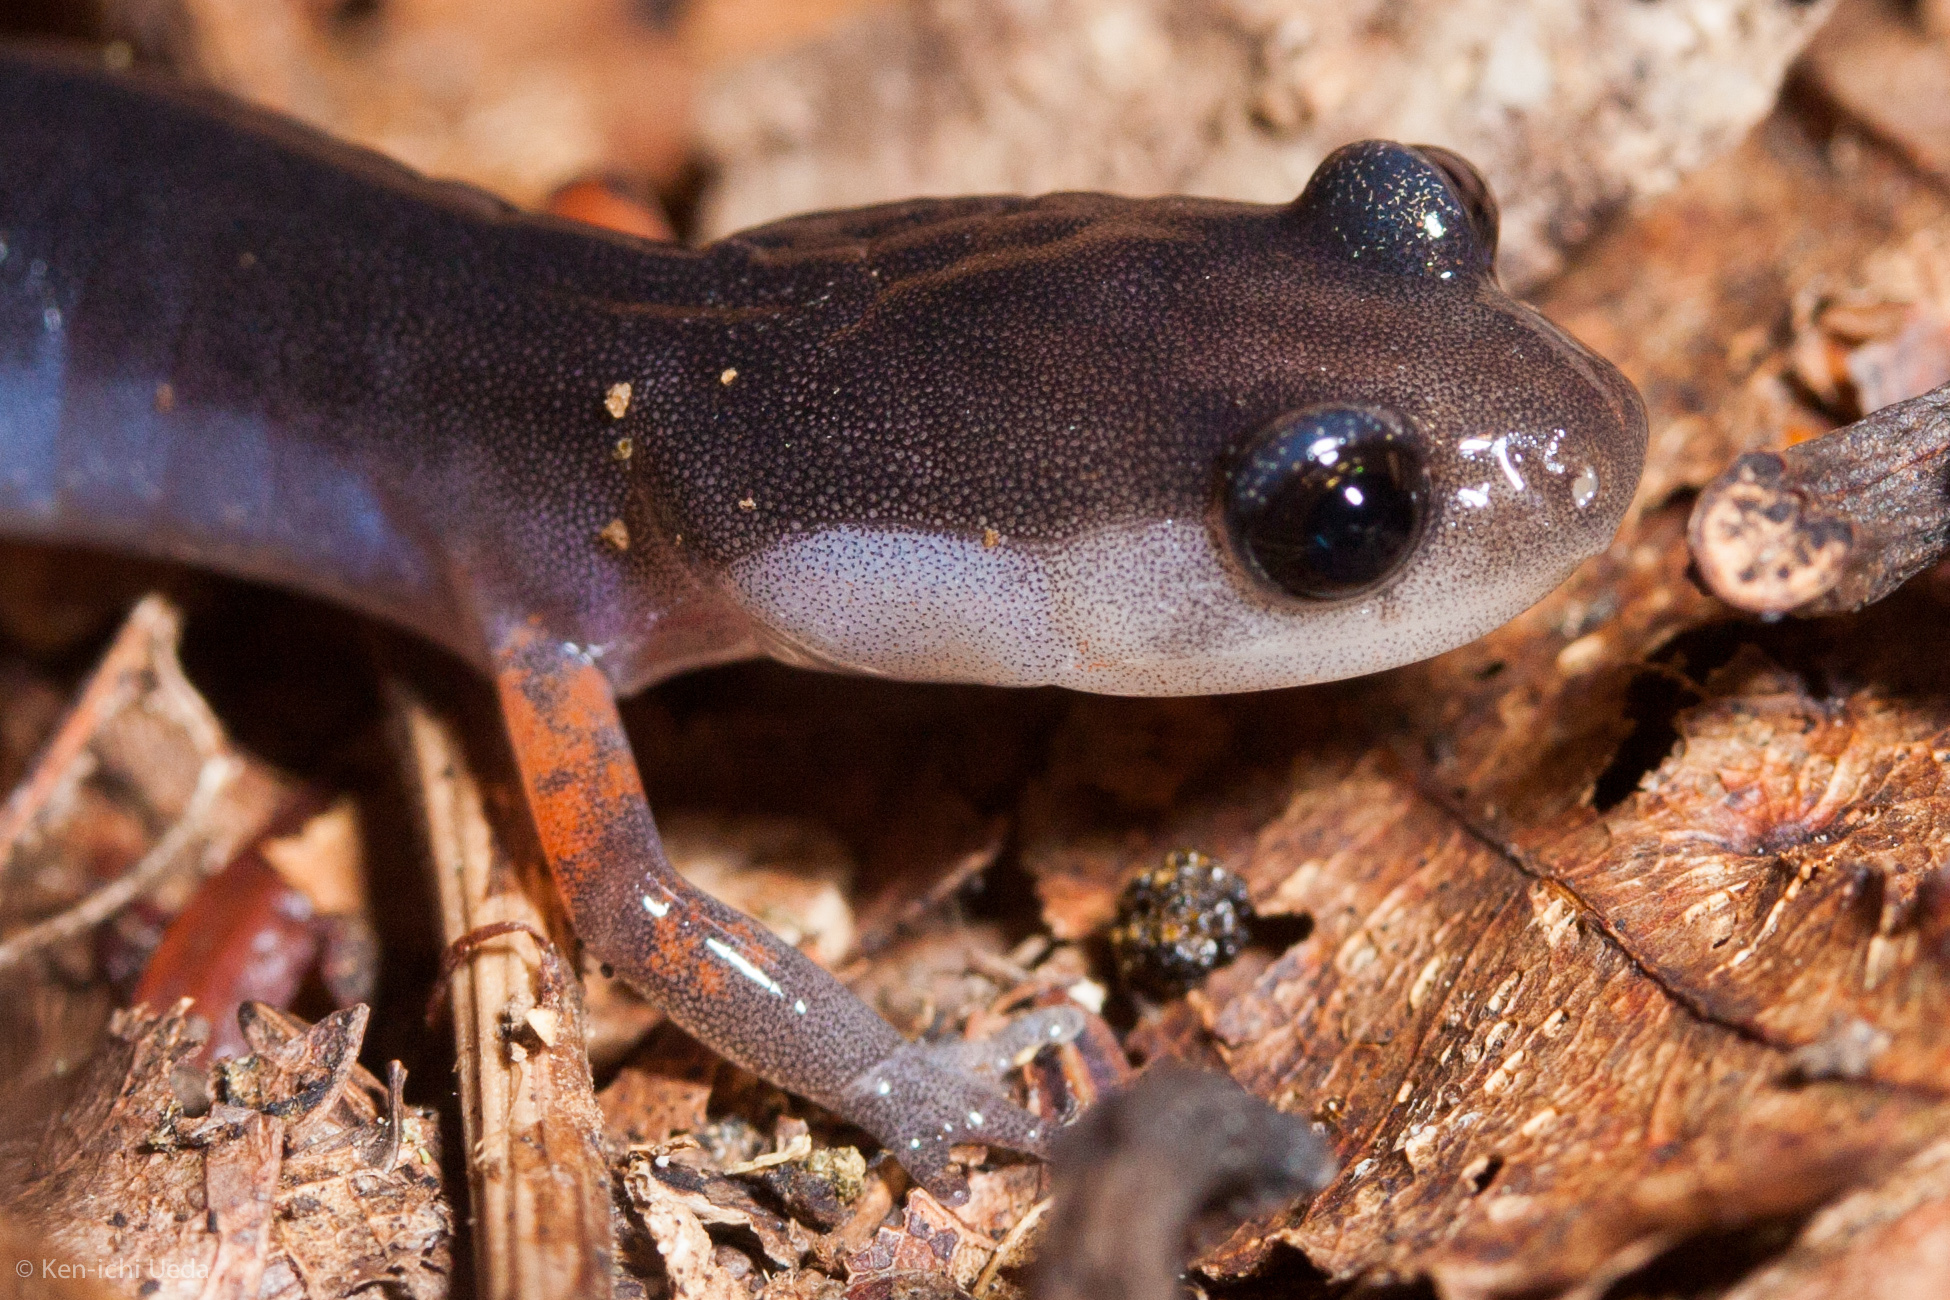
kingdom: Animalia
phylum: Chordata
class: Amphibia
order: Caudata
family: Plethodontidae
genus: Plethodon
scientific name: Plethodon shermani
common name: Red-legged salamander
